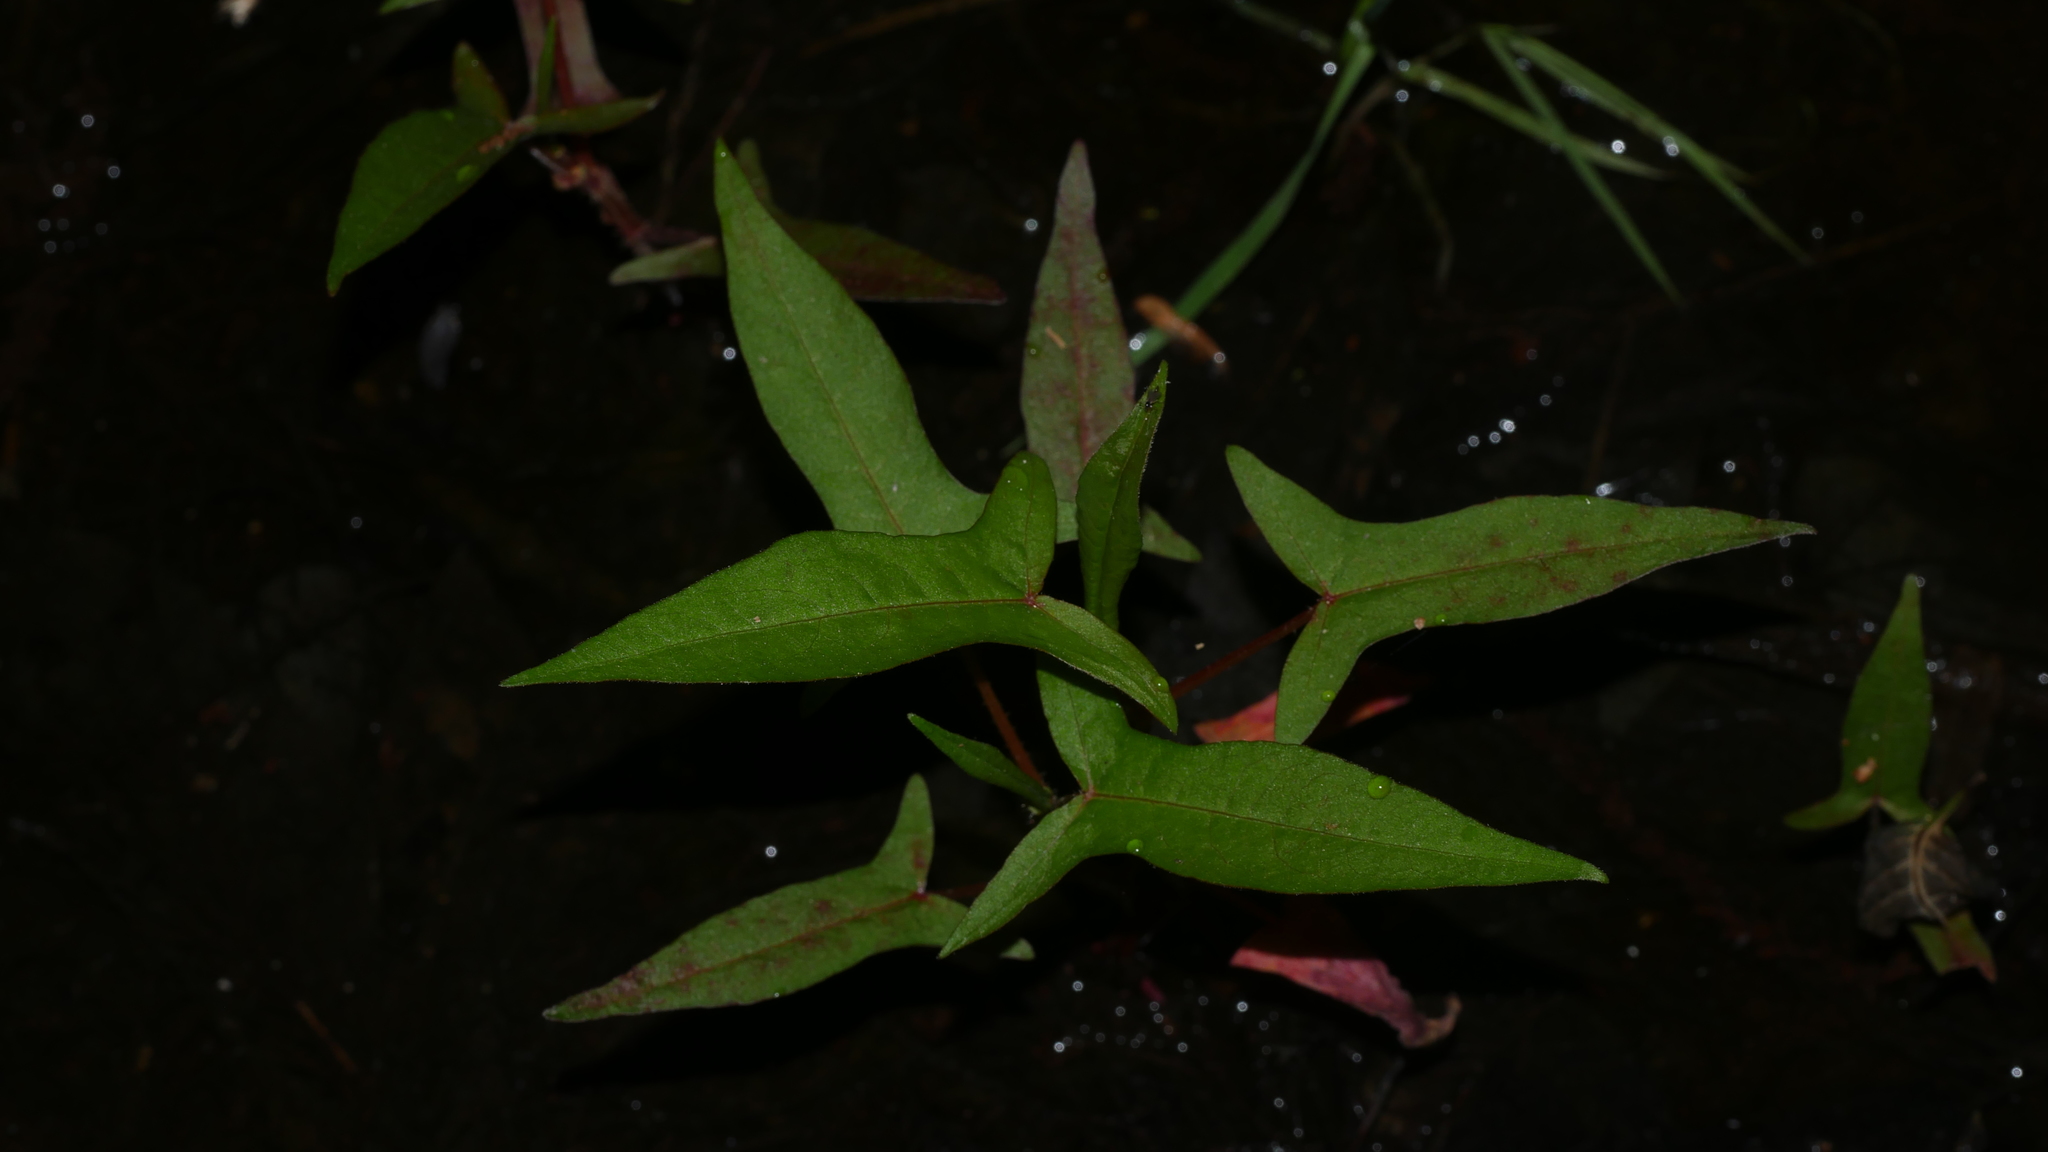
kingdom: Plantae
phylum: Tracheophyta
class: Magnoliopsida
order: Caryophyllales
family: Polygonaceae
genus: Persicaria
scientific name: Persicaria arifolia
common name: Halberd-leaved tear-thumb
